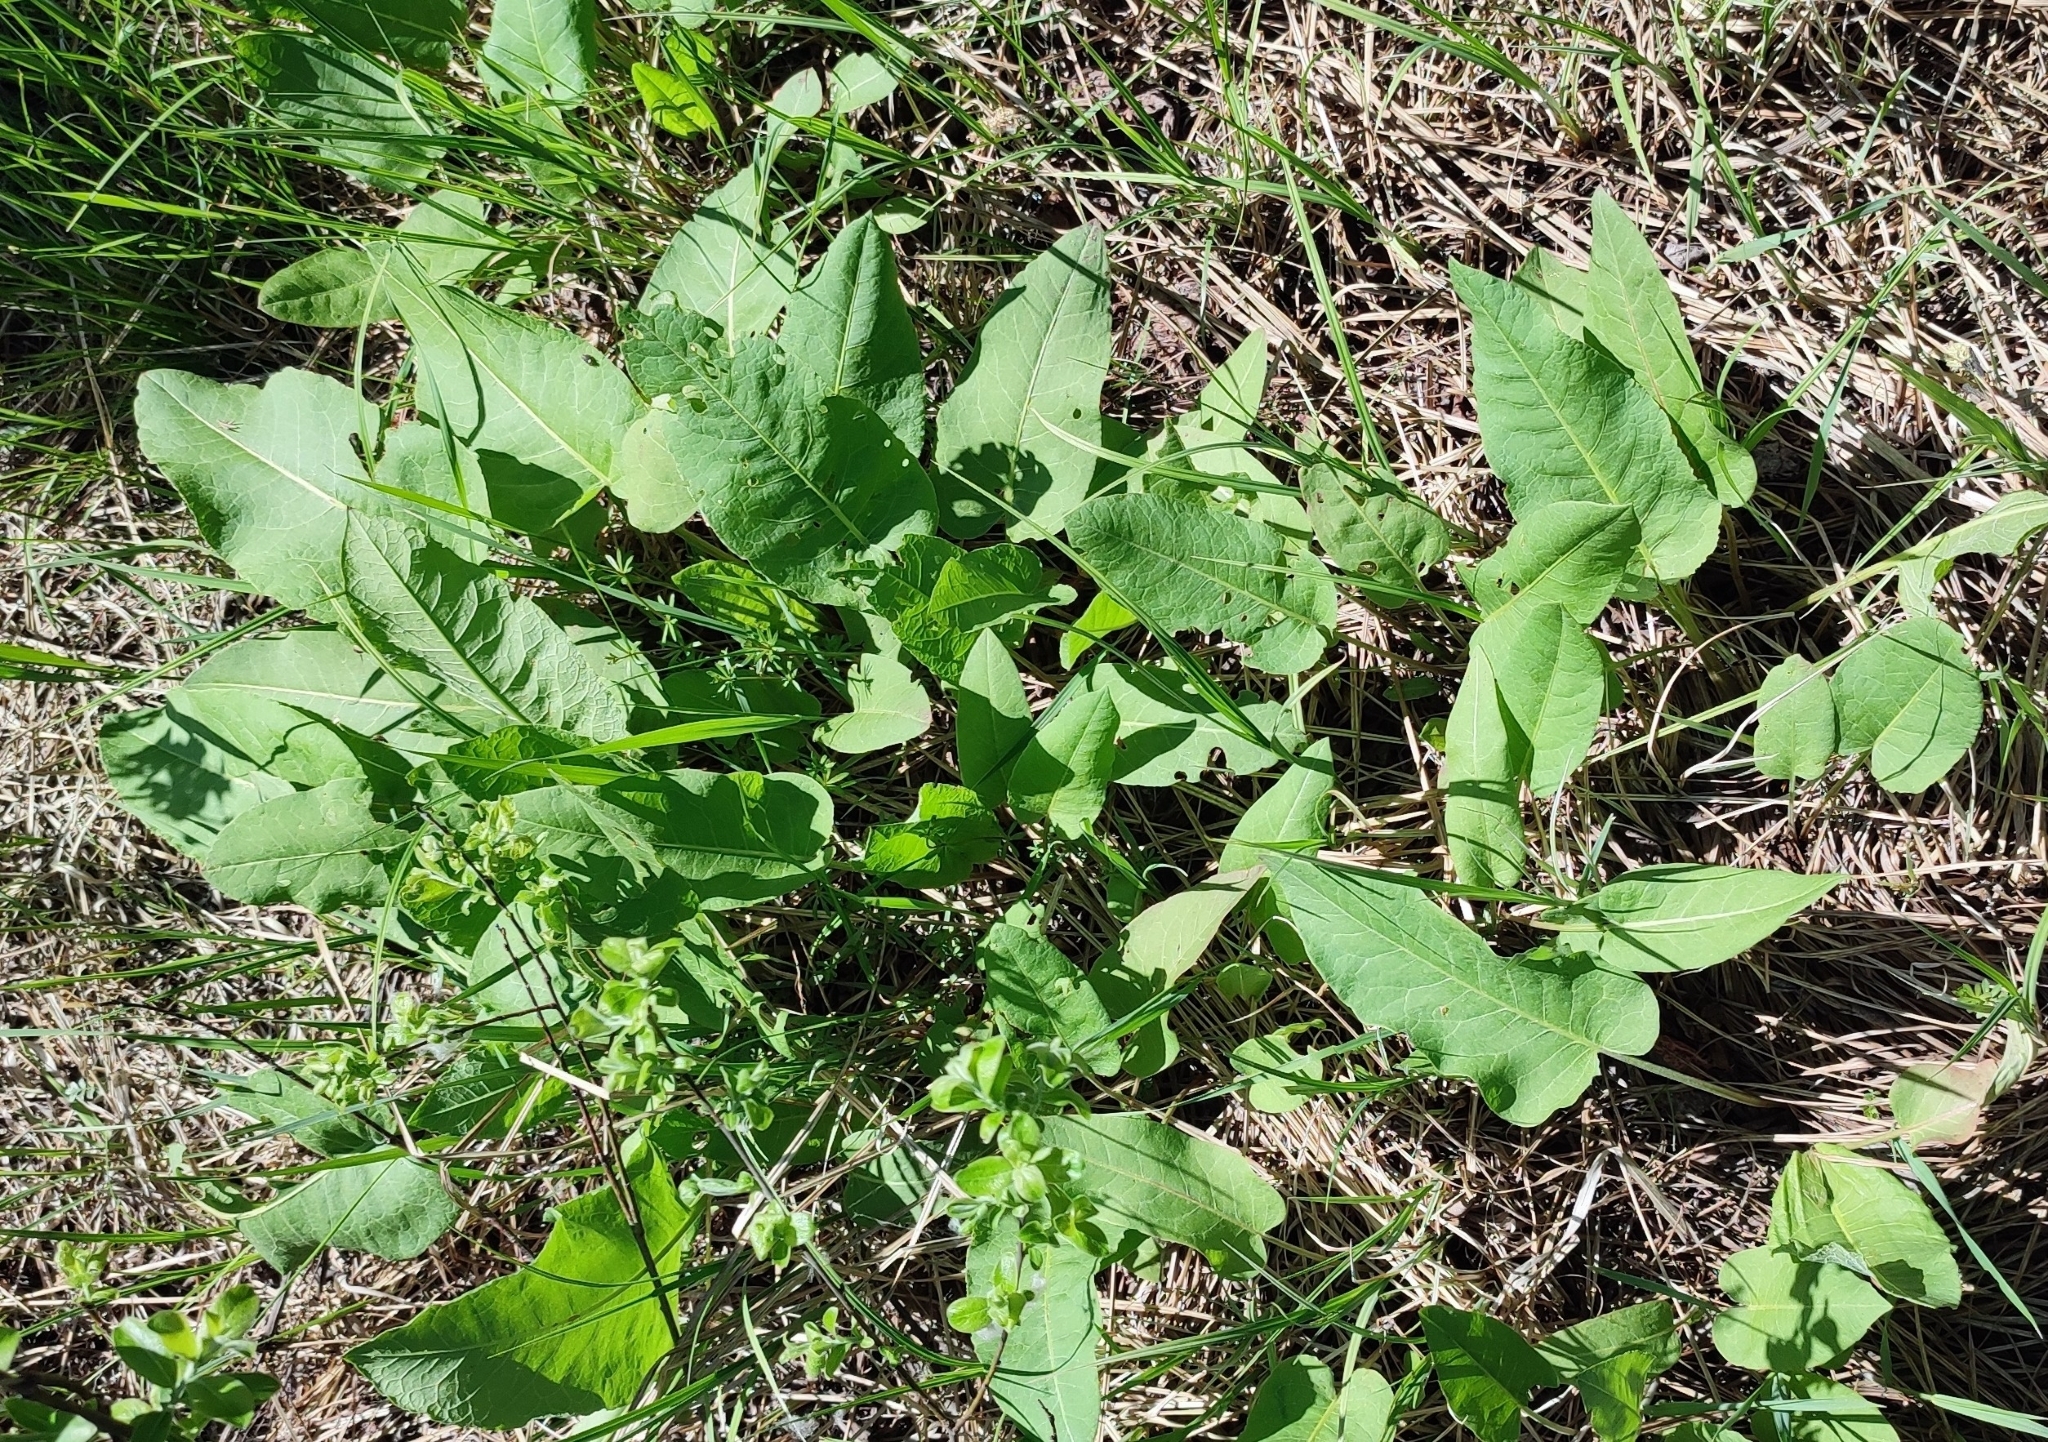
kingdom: Plantae
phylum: Tracheophyta
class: Magnoliopsida
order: Caryophyllales
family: Polygonaceae
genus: Rumex
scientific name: Rumex confertus
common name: Russian dock
